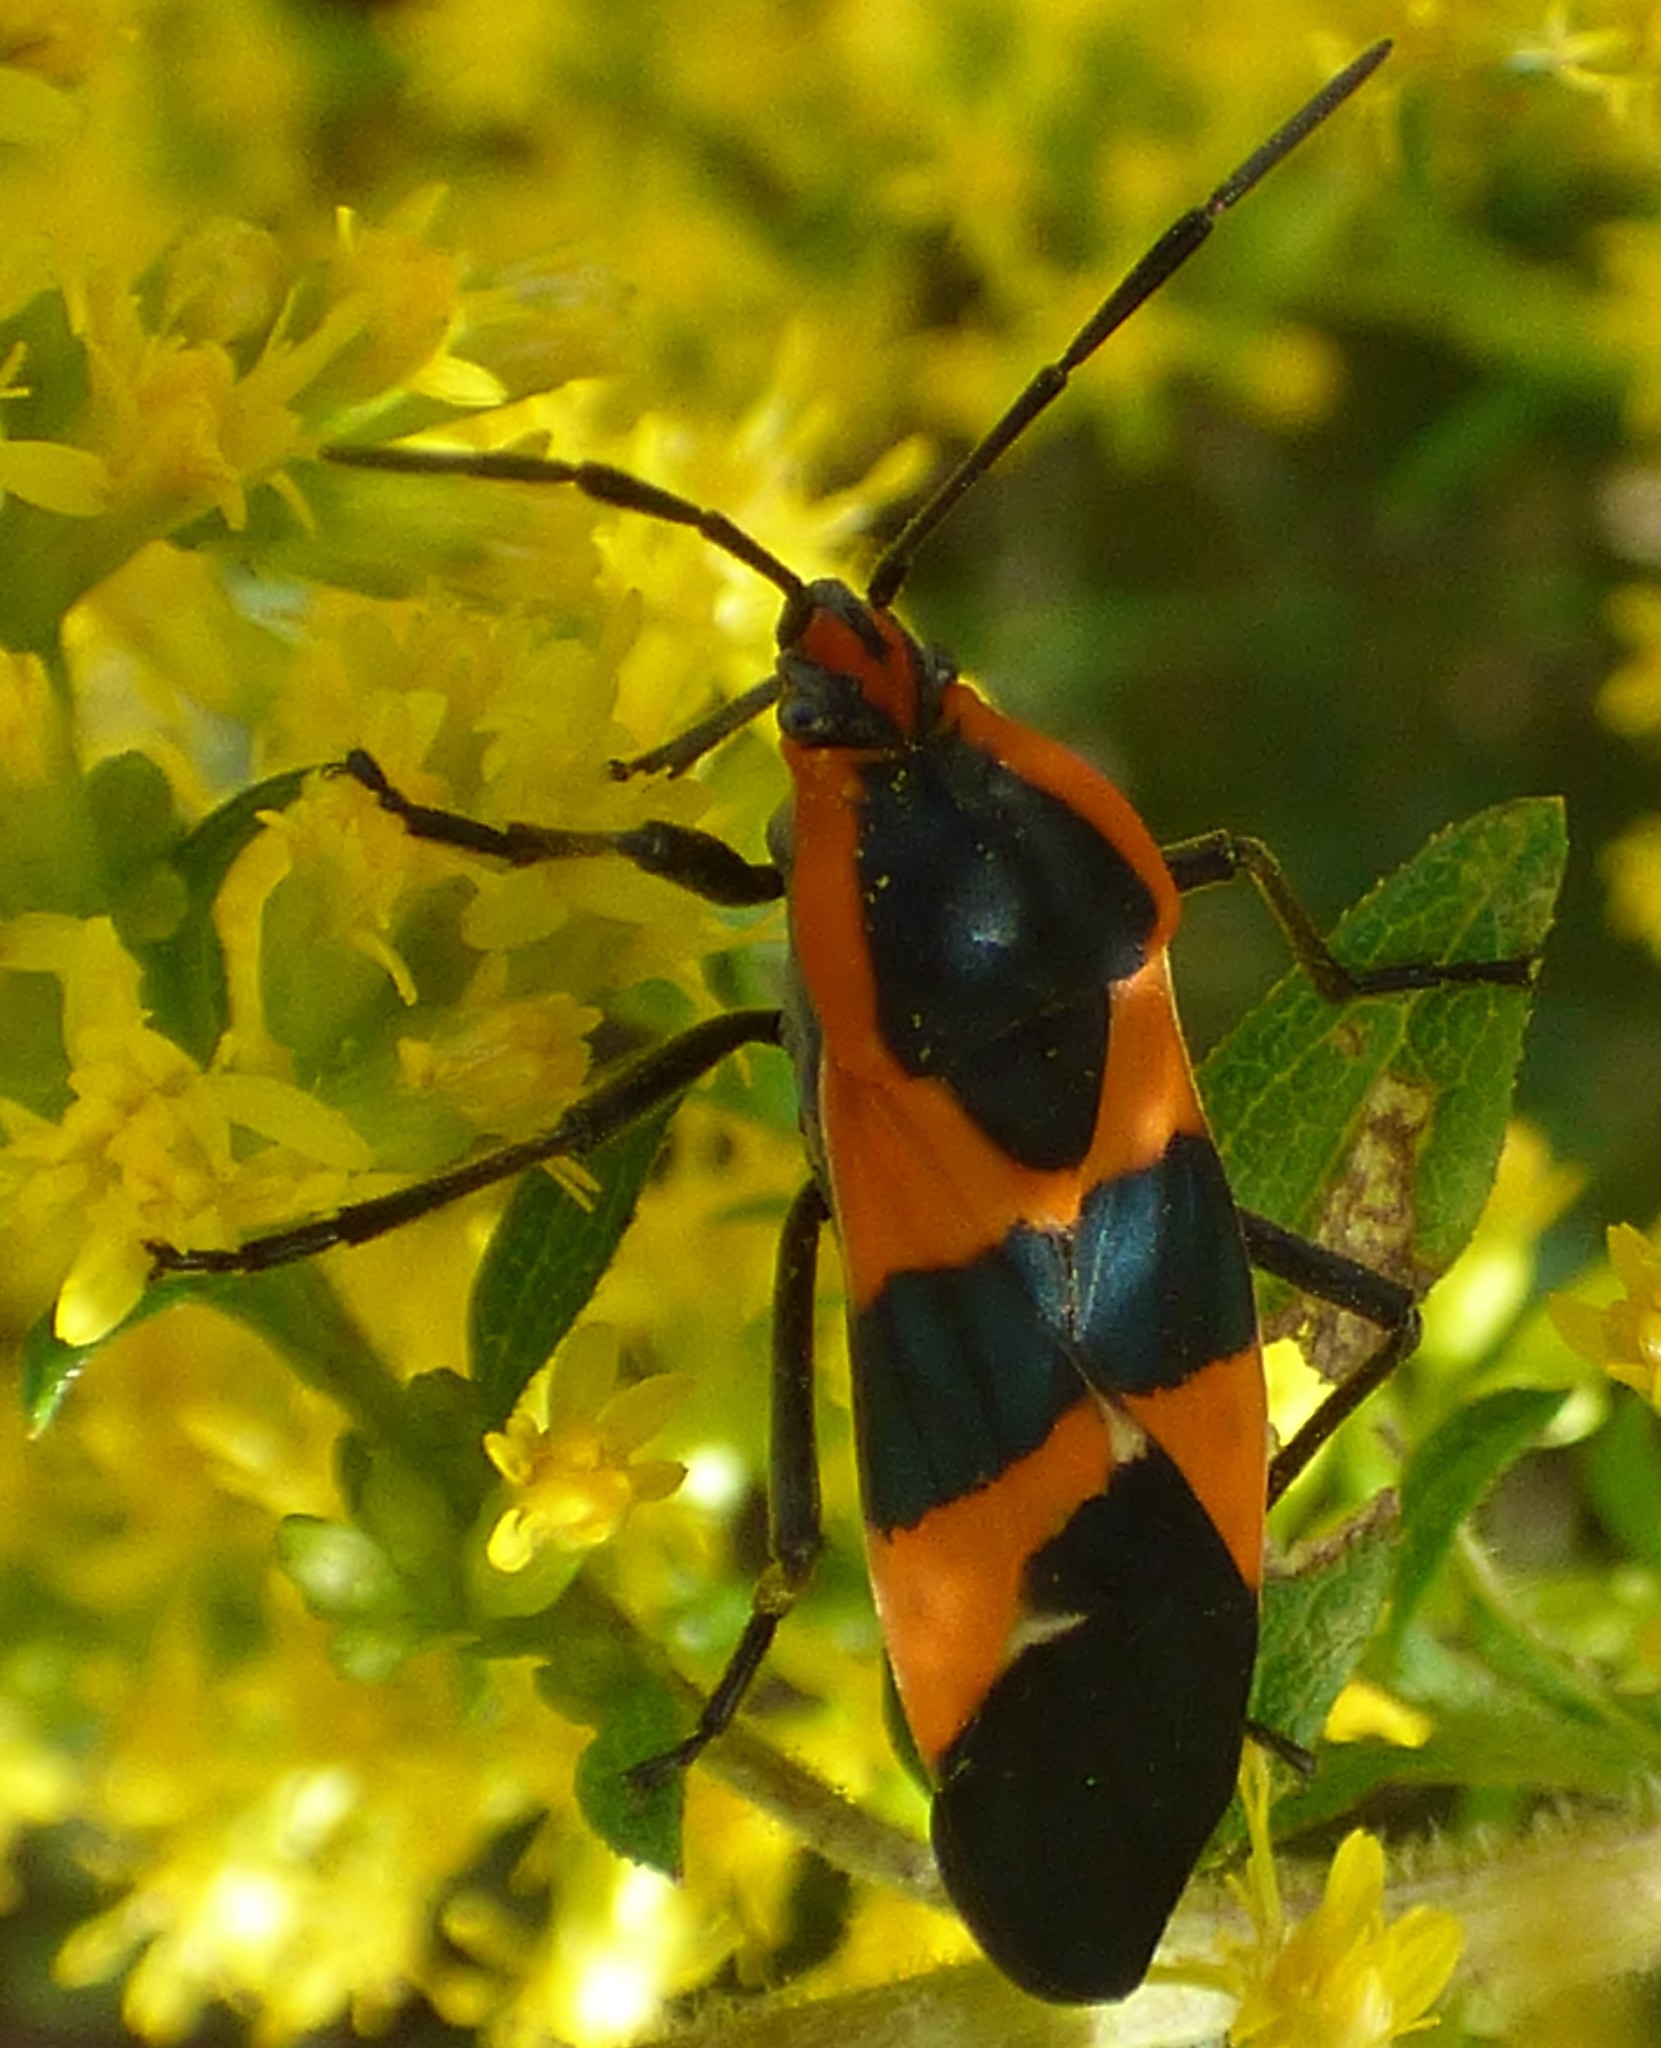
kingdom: Animalia
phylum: Arthropoda
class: Insecta
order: Hemiptera
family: Lygaeidae
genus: Oncopeltus
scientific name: Oncopeltus fasciatus
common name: Large milkweed bug
